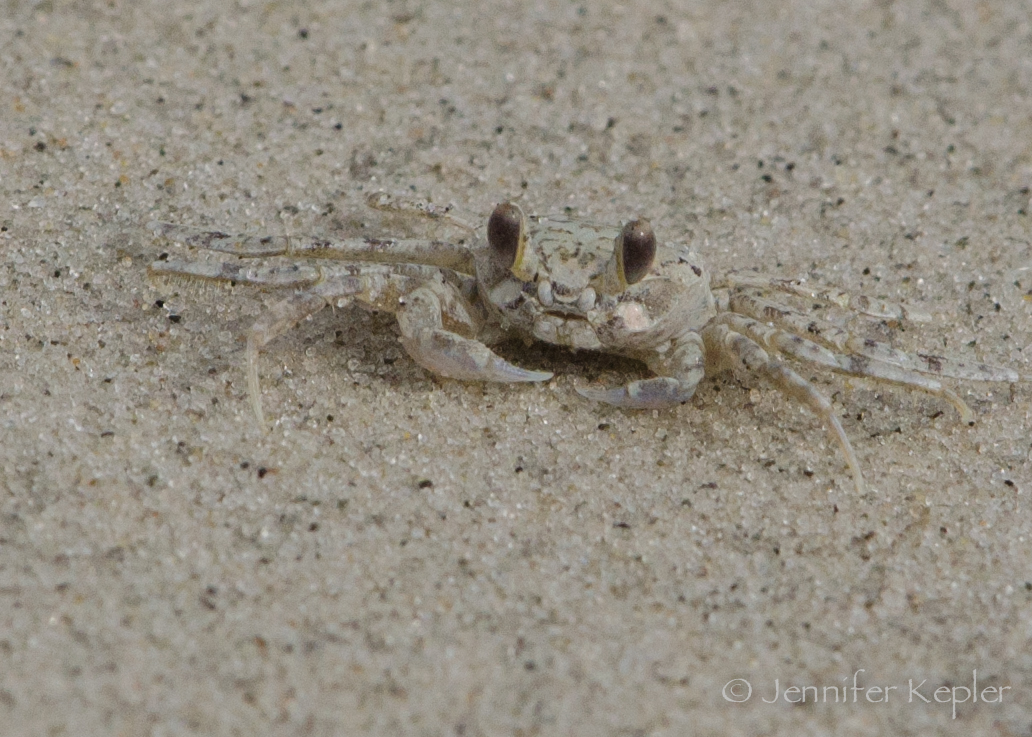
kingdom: Animalia
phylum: Arthropoda
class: Malacostraca
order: Decapoda
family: Ocypodidae
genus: Ocypode
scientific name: Ocypode quadrata
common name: Ghost crab
